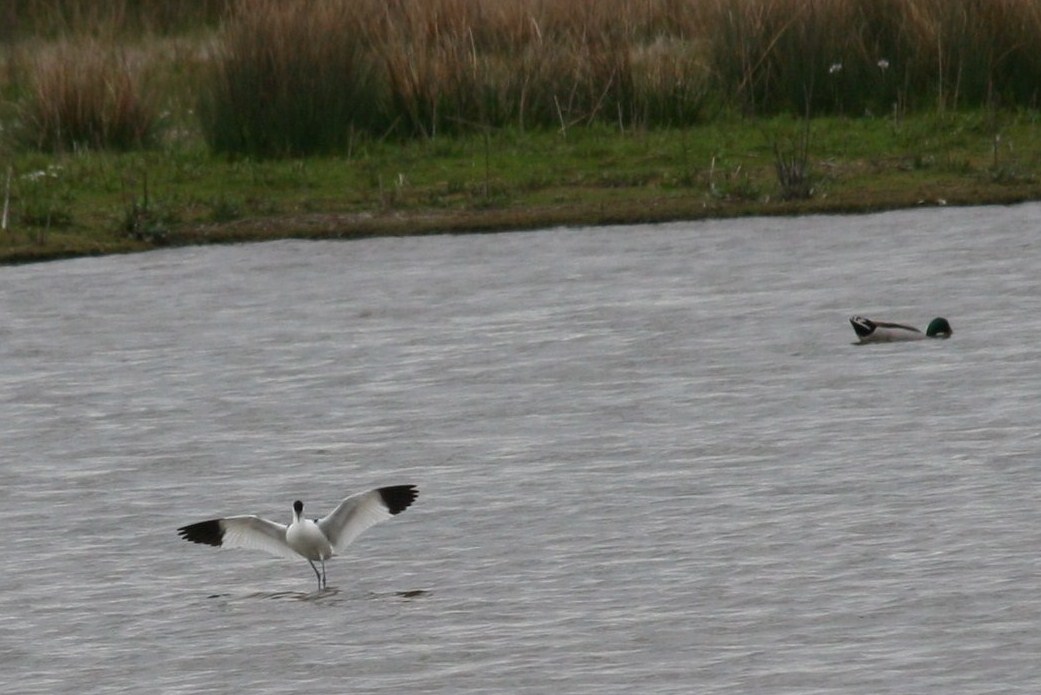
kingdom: Animalia
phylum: Chordata
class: Aves
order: Charadriiformes
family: Recurvirostridae
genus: Recurvirostra
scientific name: Recurvirostra avosetta
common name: Pied avocet
